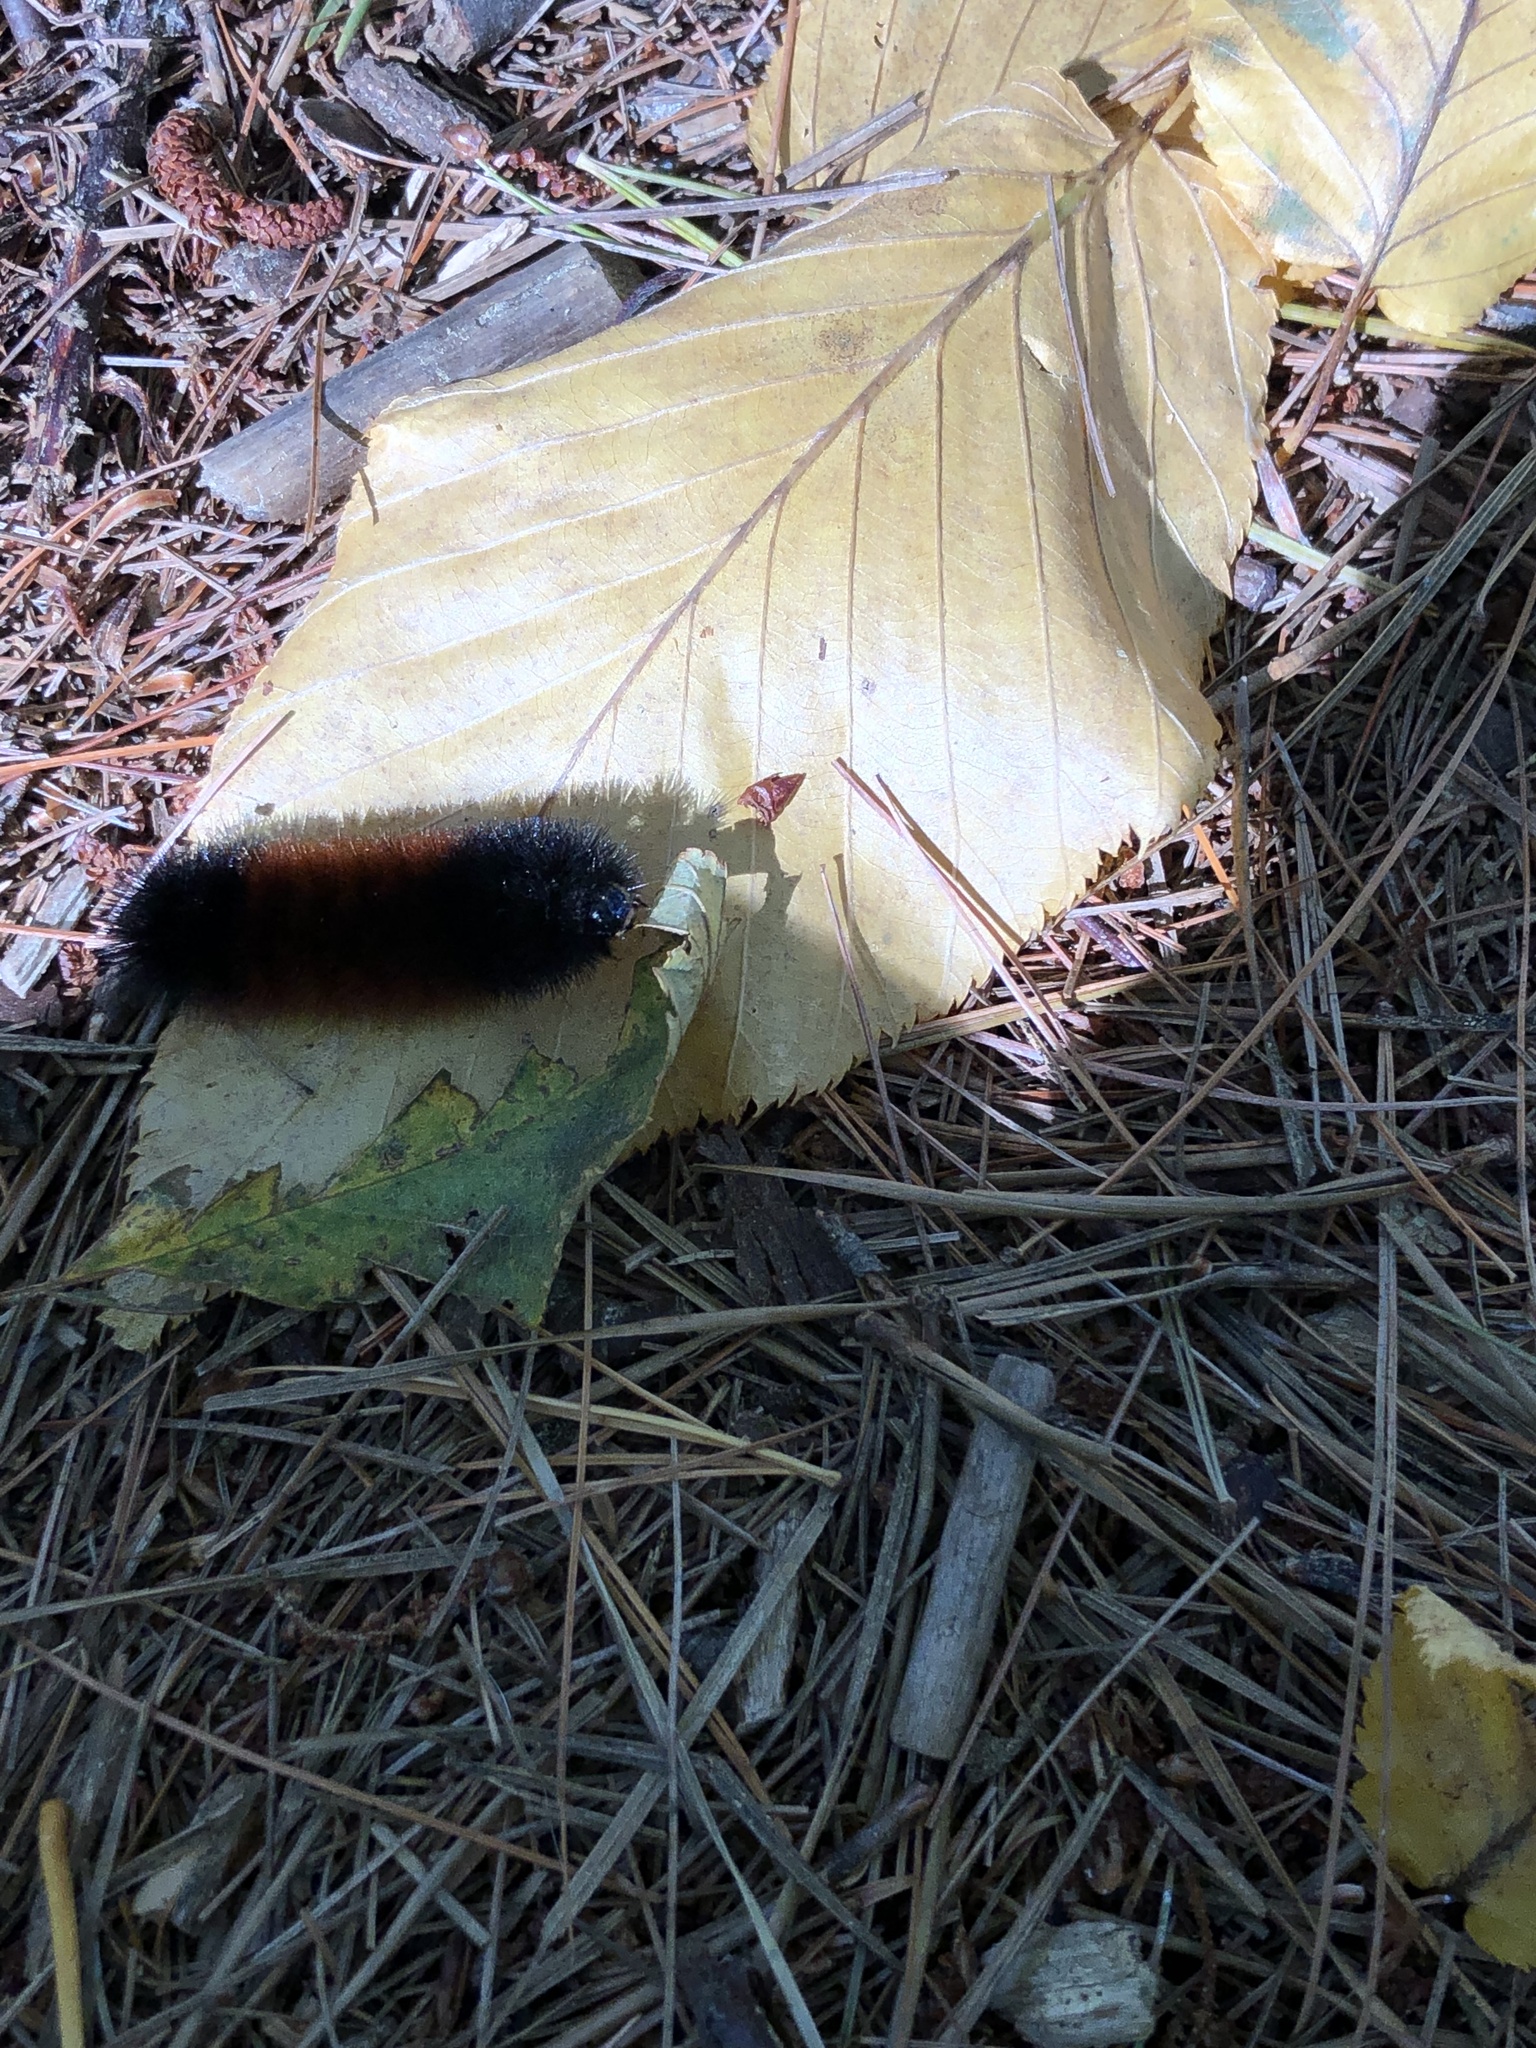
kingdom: Animalia
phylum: Arthropoda
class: Insecta
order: Lepidoptera
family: Erebidae
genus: Pyrrharctia
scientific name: Pyrrharctia isabella
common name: Isabella tiger moth
